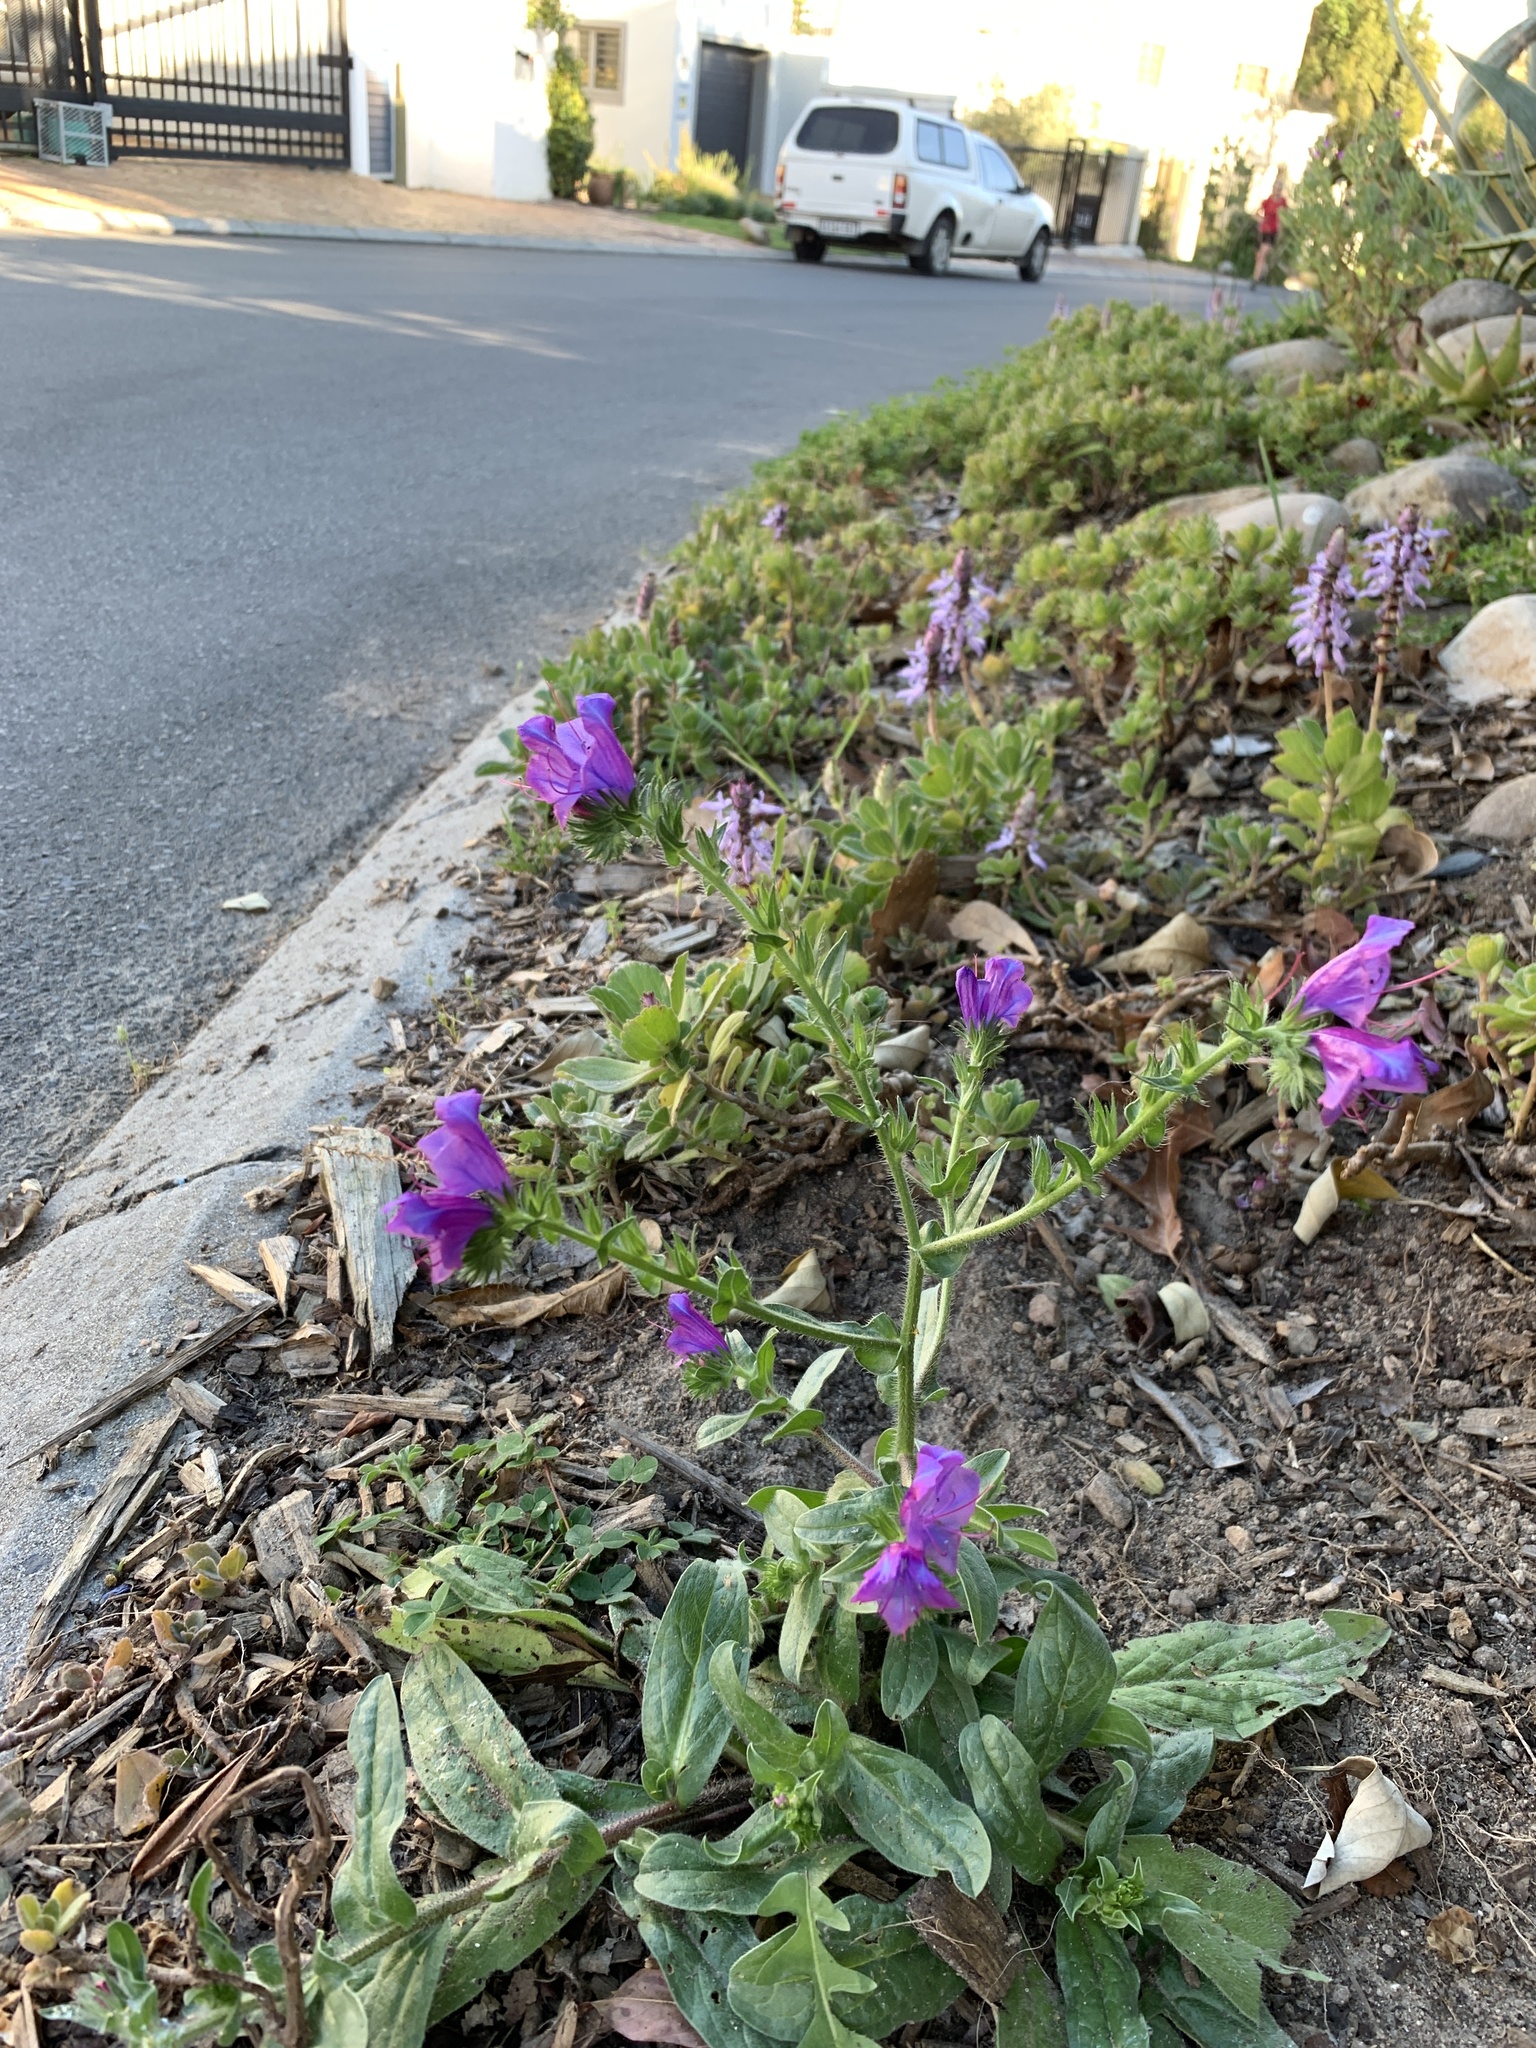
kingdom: Plantae
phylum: Tracheophyta
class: Magnoliopsida
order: Boraginales
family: Boraginaceae
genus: Echium
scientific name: Echium plantagineum
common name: Purple viper's-bugloss
